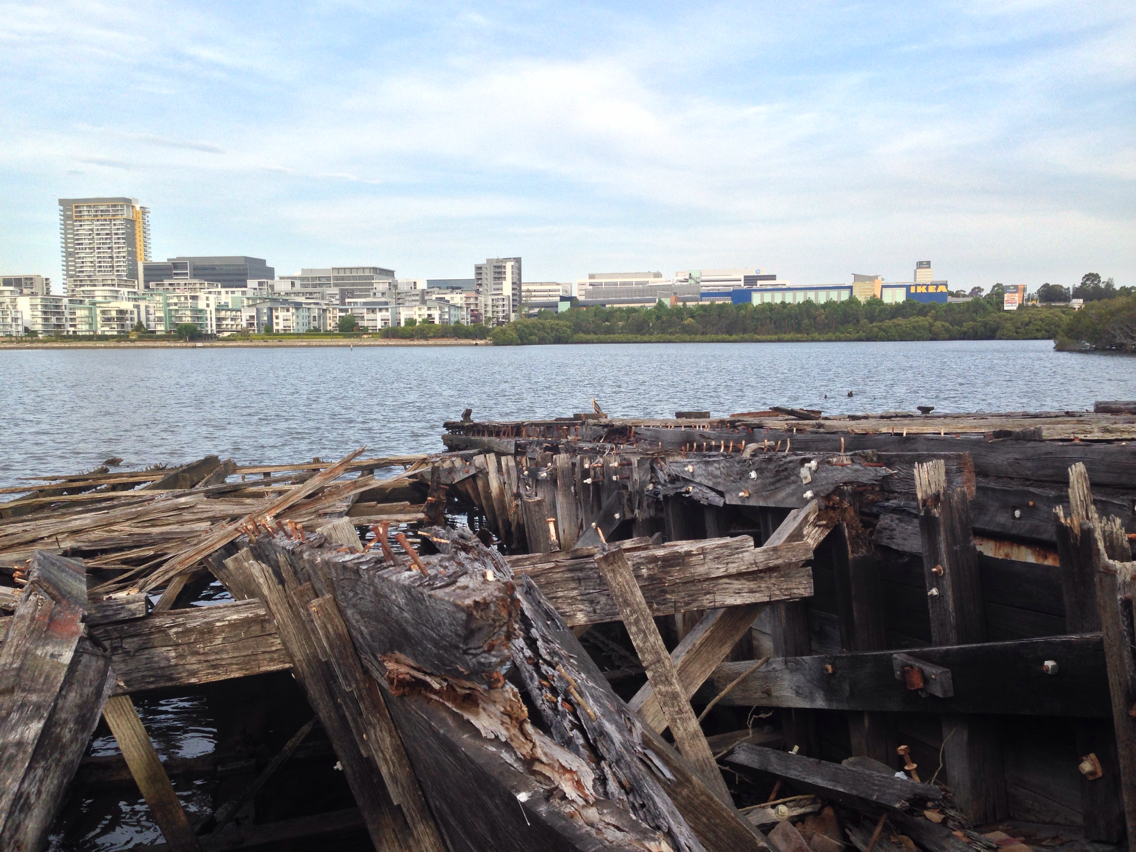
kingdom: Animalia
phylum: Chordata
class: Aves
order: Suliformes
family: Anhingidae
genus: Anhinga
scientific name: Anhinga novaehollandiae
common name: Australasian darter
